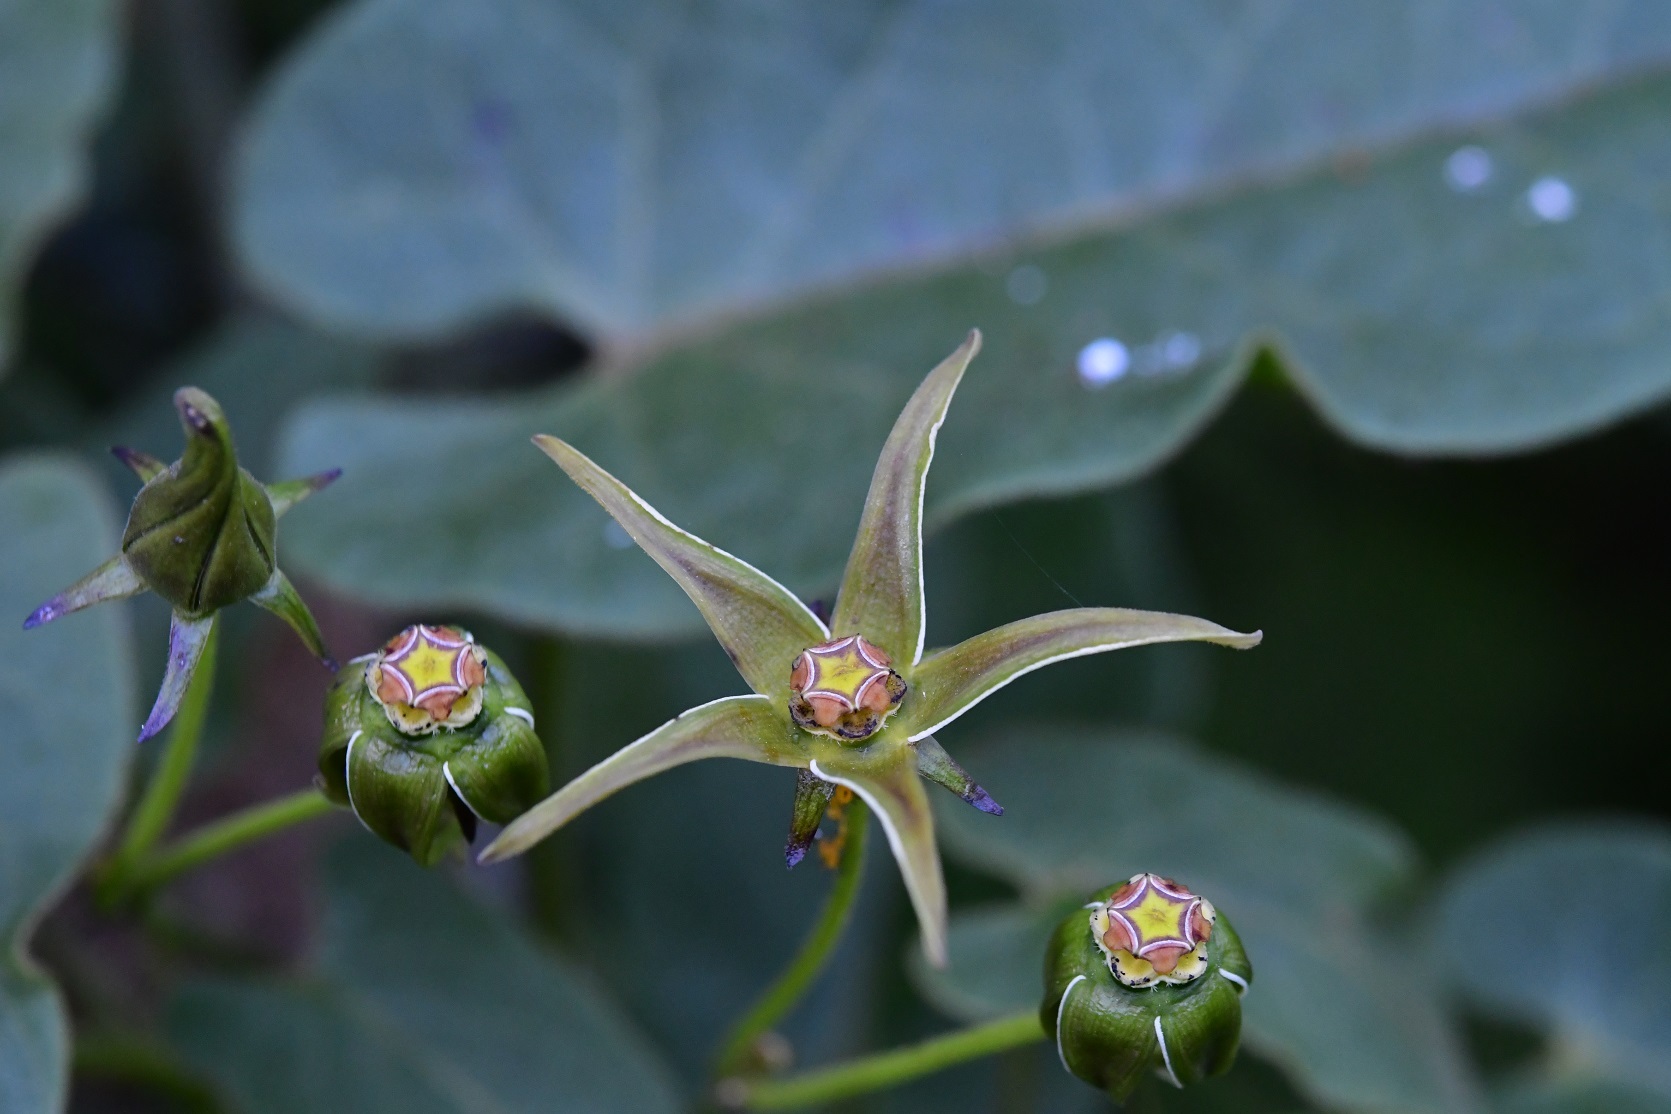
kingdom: Plantae
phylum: Tracheophyta
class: Magnoliopsida
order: Gentianales
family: Apocynaceae
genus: Gonolobus
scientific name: Gonolobus breedlovei
